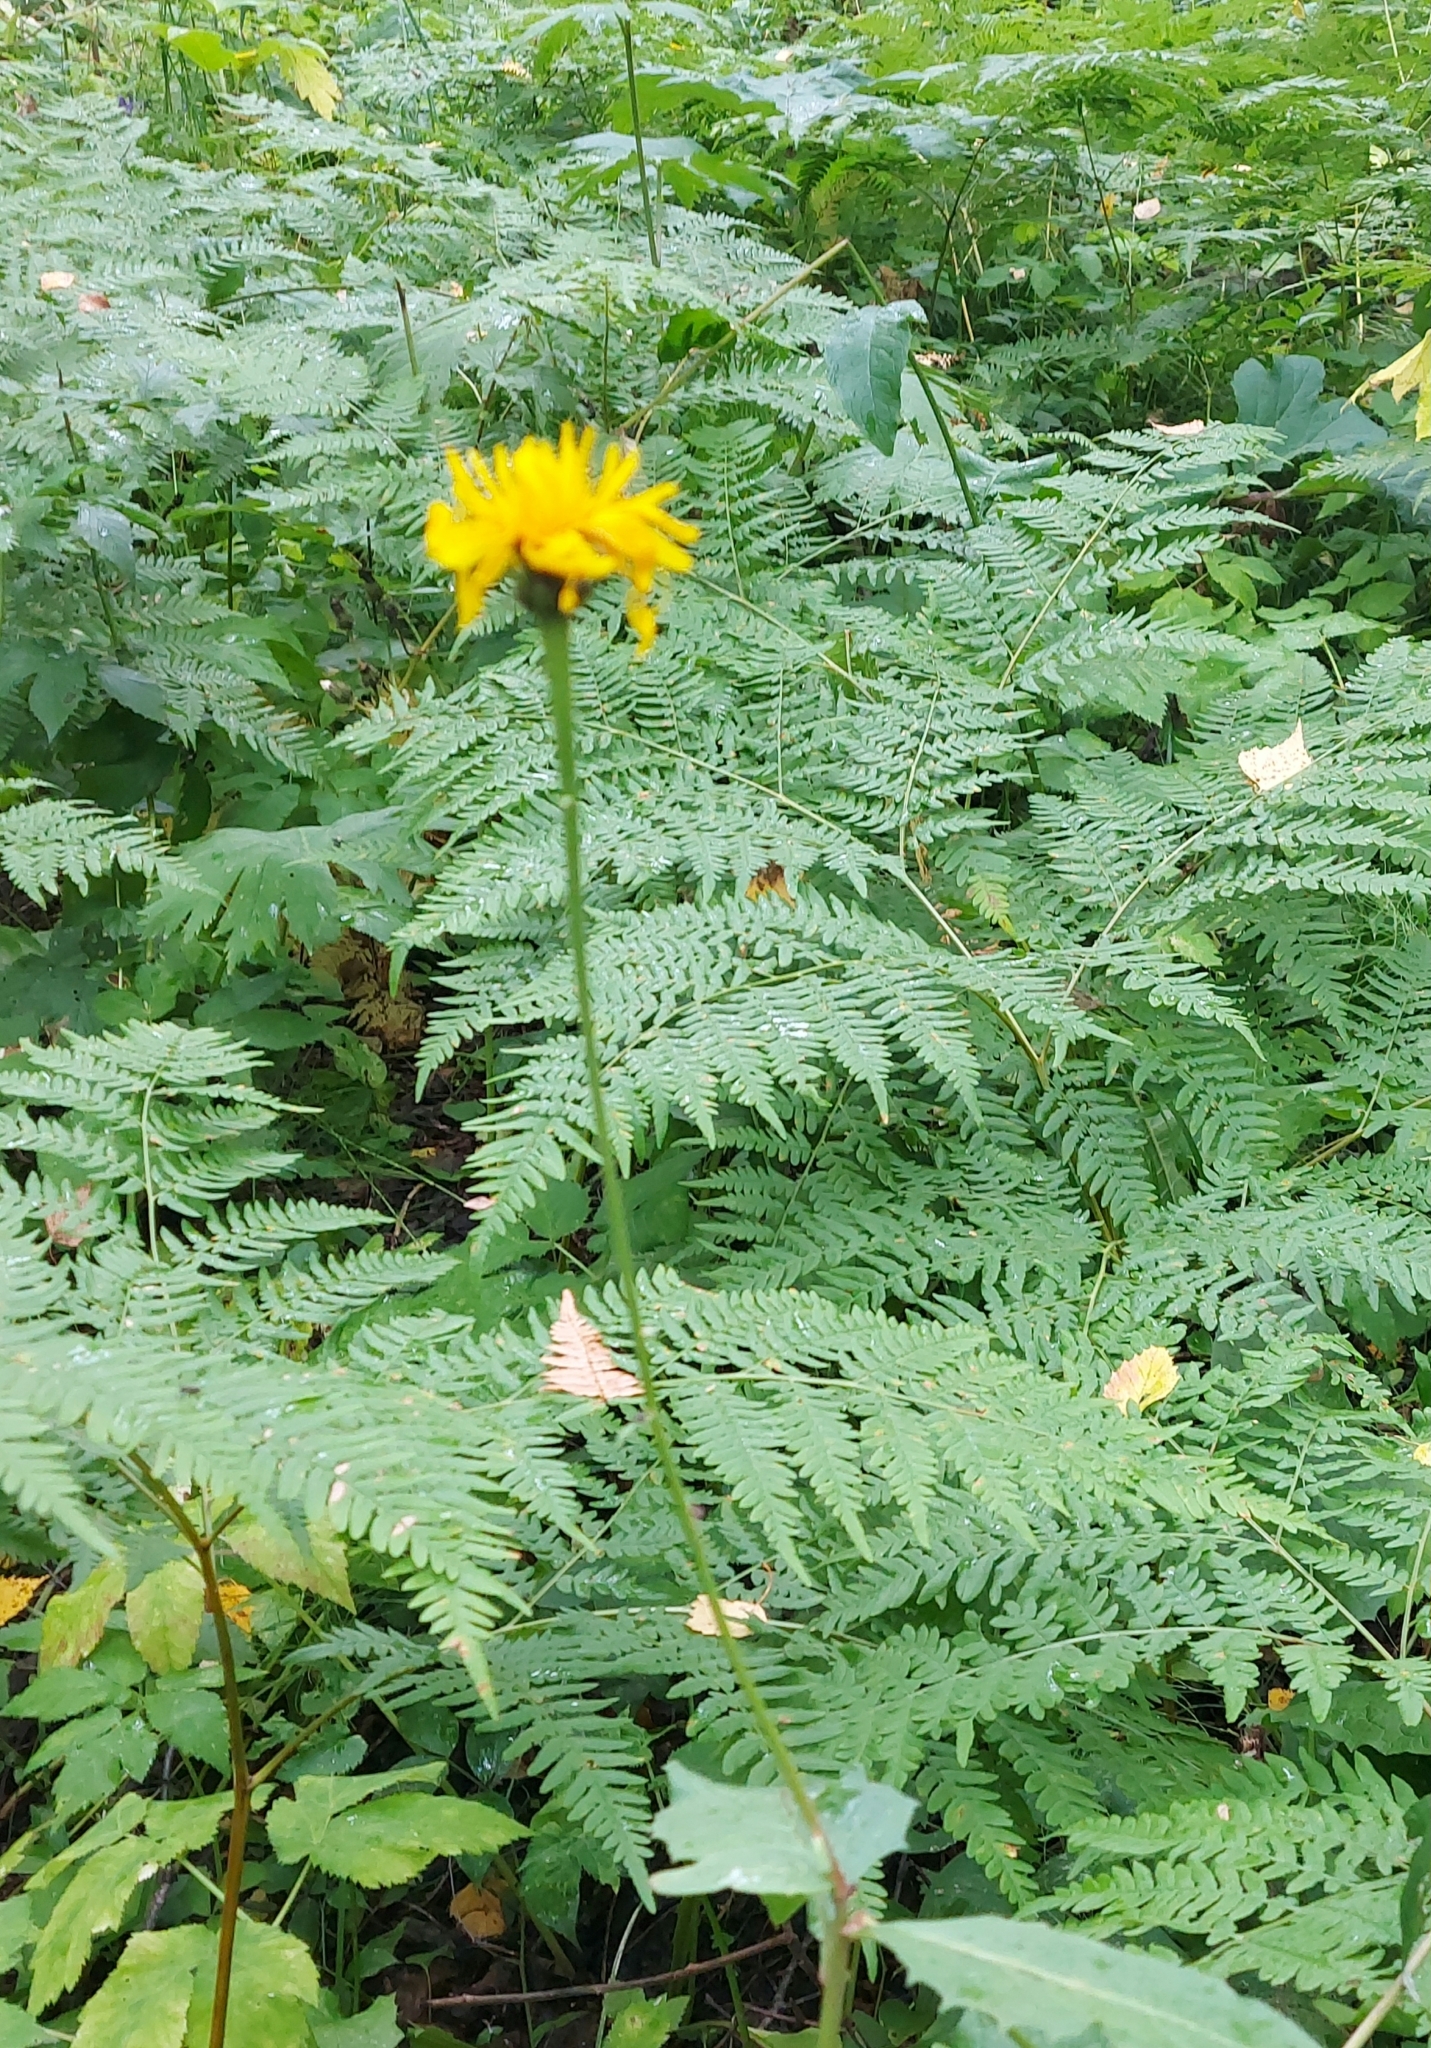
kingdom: Plantae
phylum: Tracheophyta
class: Magnoliopsida
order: Asterales
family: Asteraceae
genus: Crepis
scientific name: Crepis sibirica
